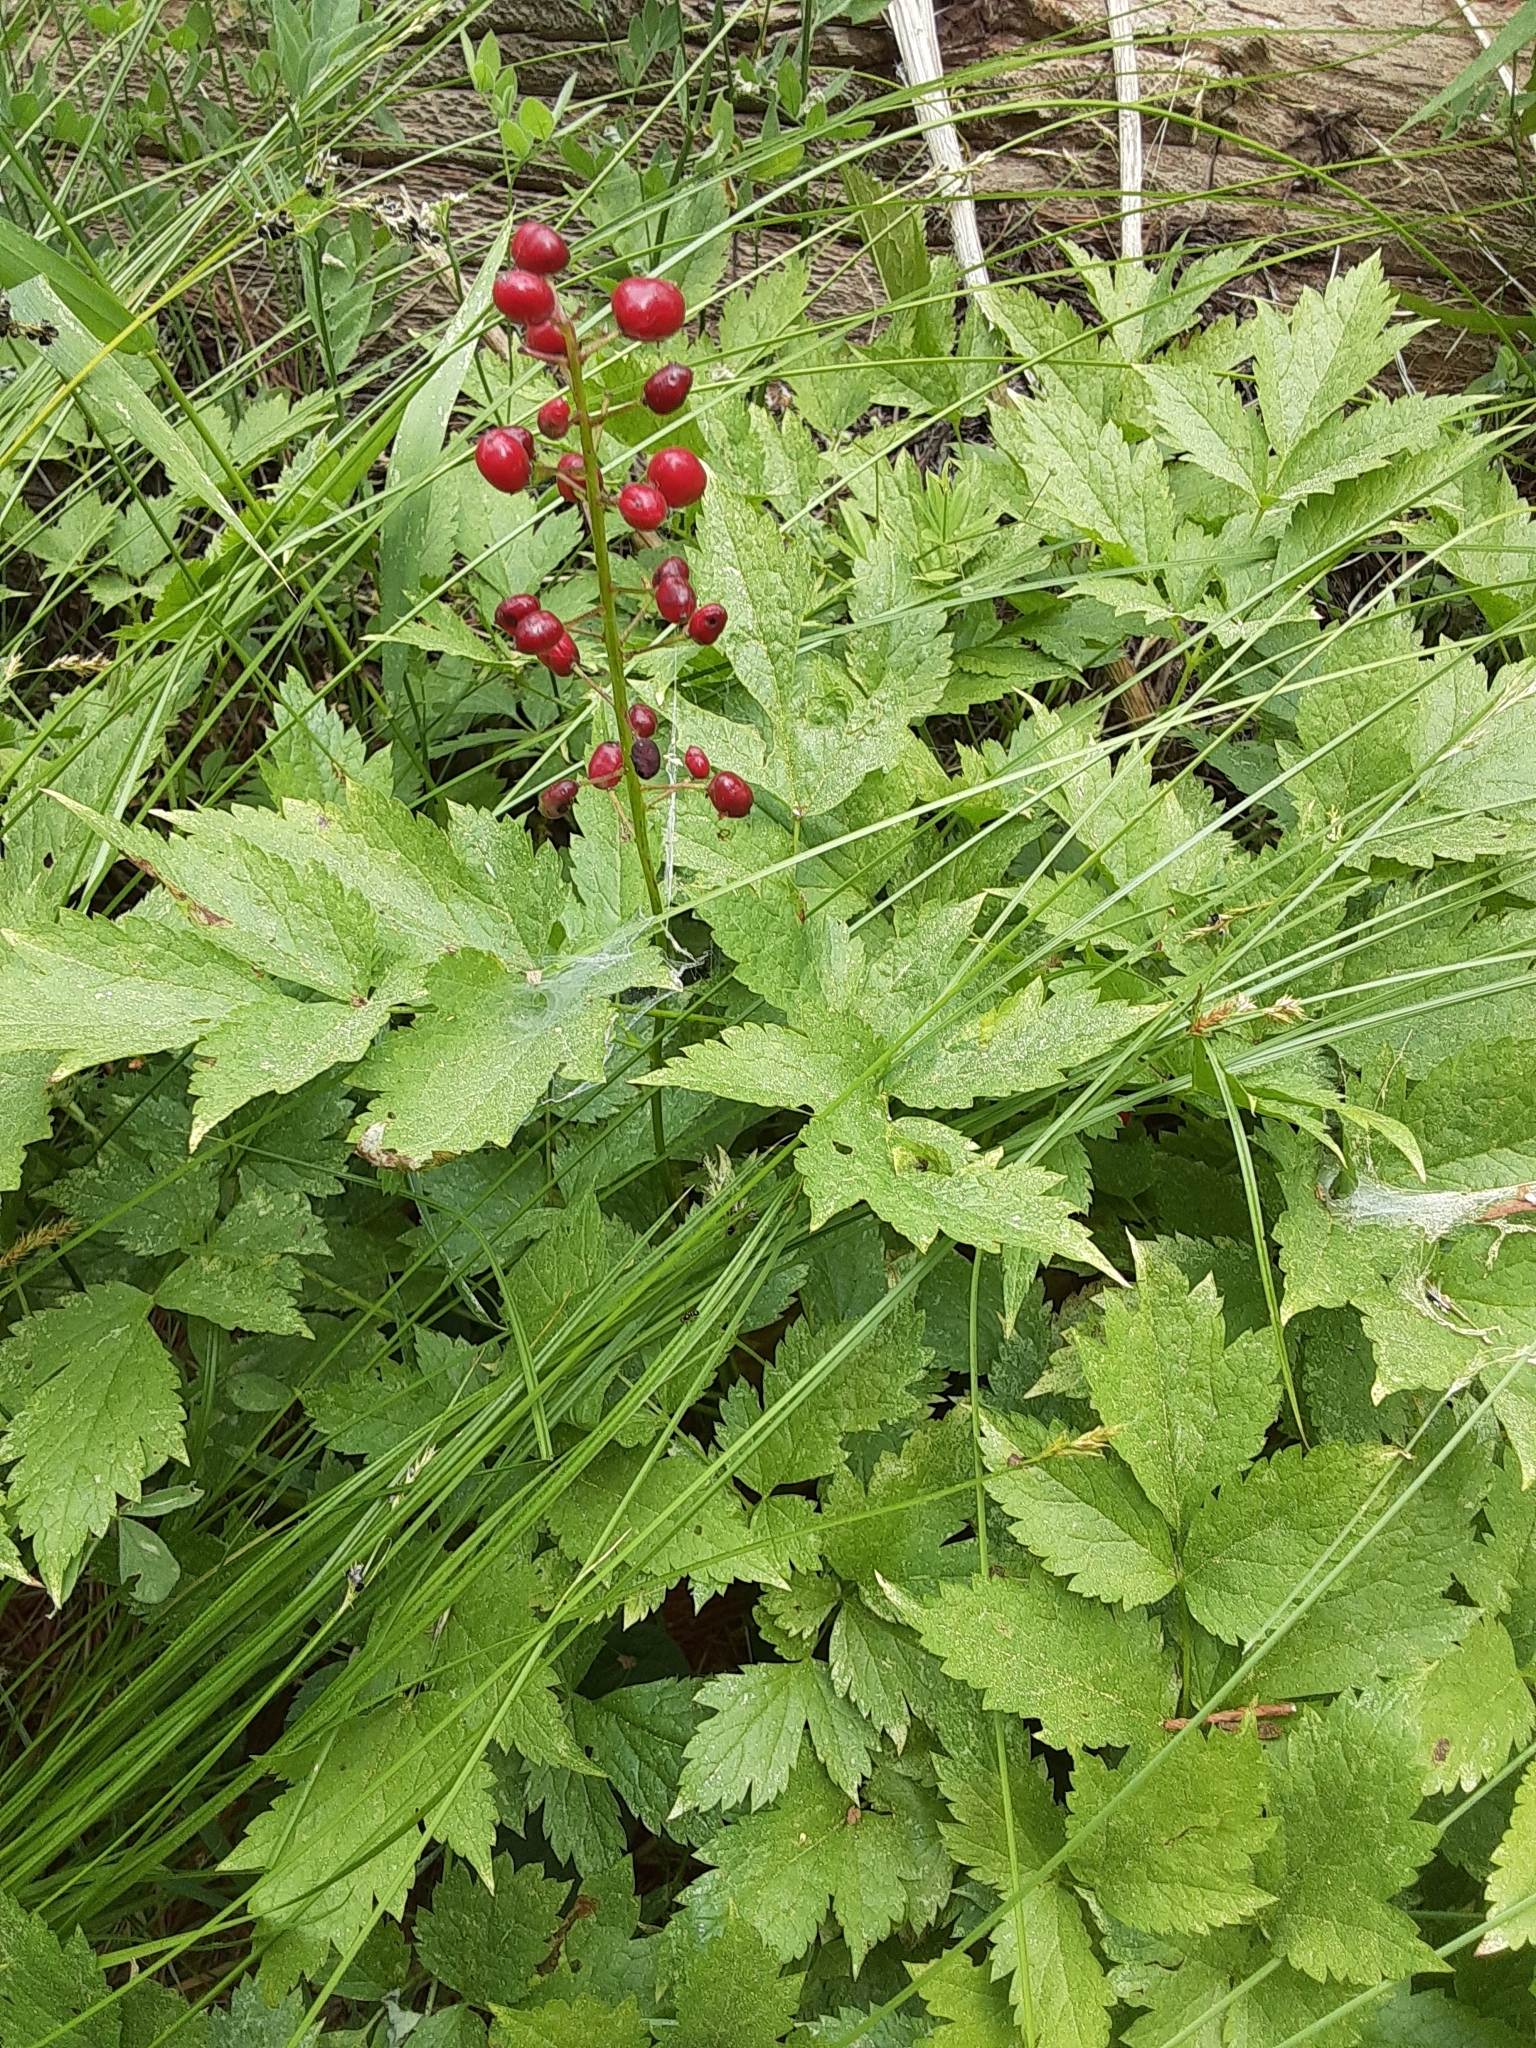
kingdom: Plantae
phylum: Tracheophyta
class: Magnoliopsida
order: Ranunculales
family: Ranunculaceae
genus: Actaea
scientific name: Actaea rubra
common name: Red baneberry
